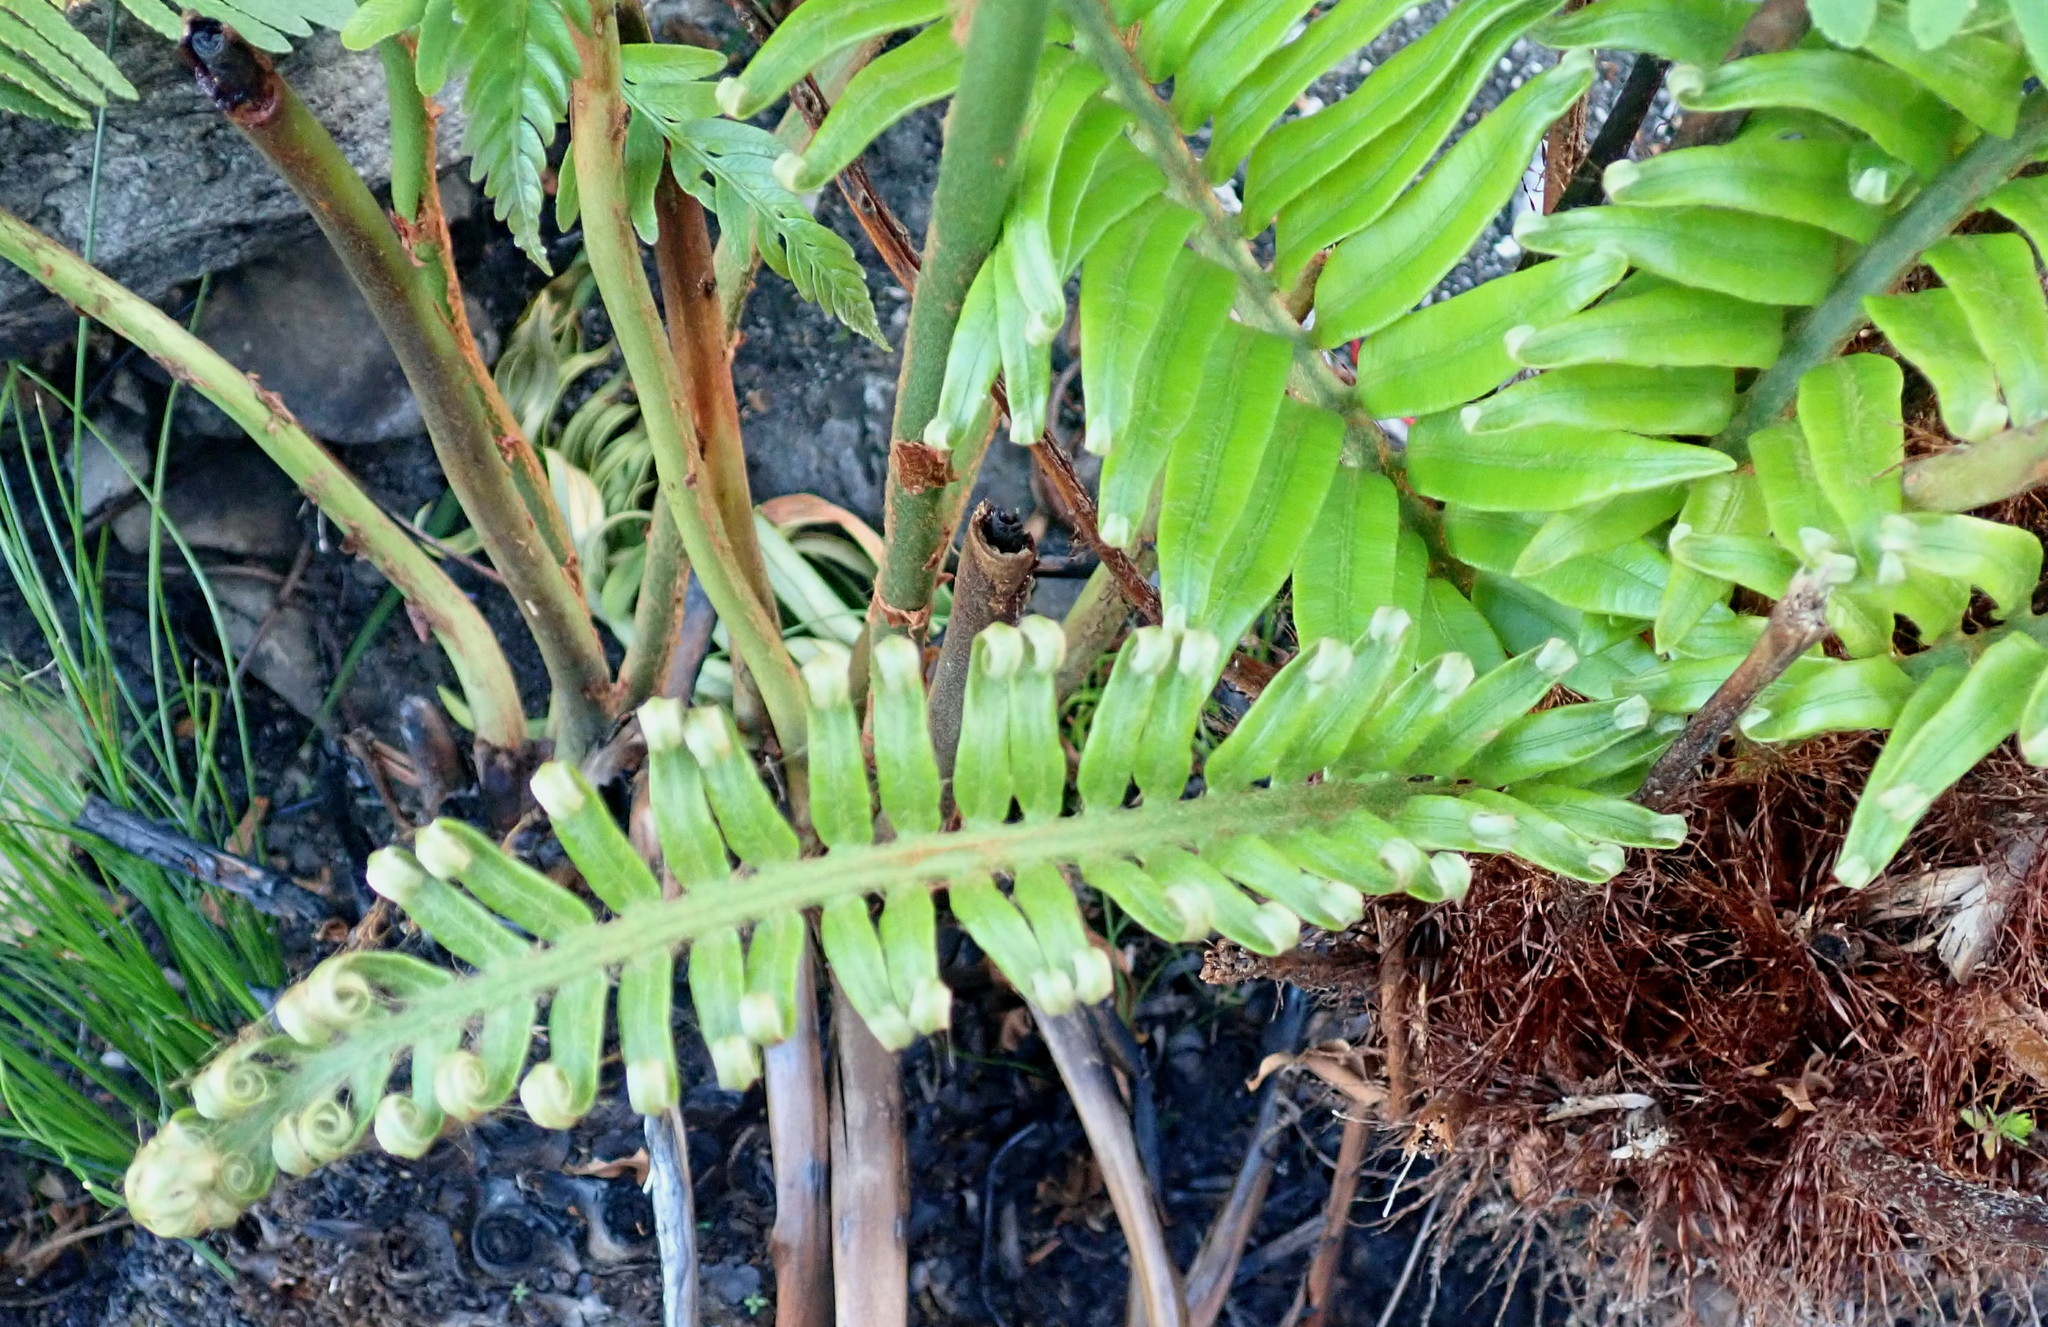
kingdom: Plantae
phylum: Tracheophyta
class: Polypodiopsida
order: Polypodiales
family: Blechnaceae
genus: Lomariocycas
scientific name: Lomariocycas tabularis
